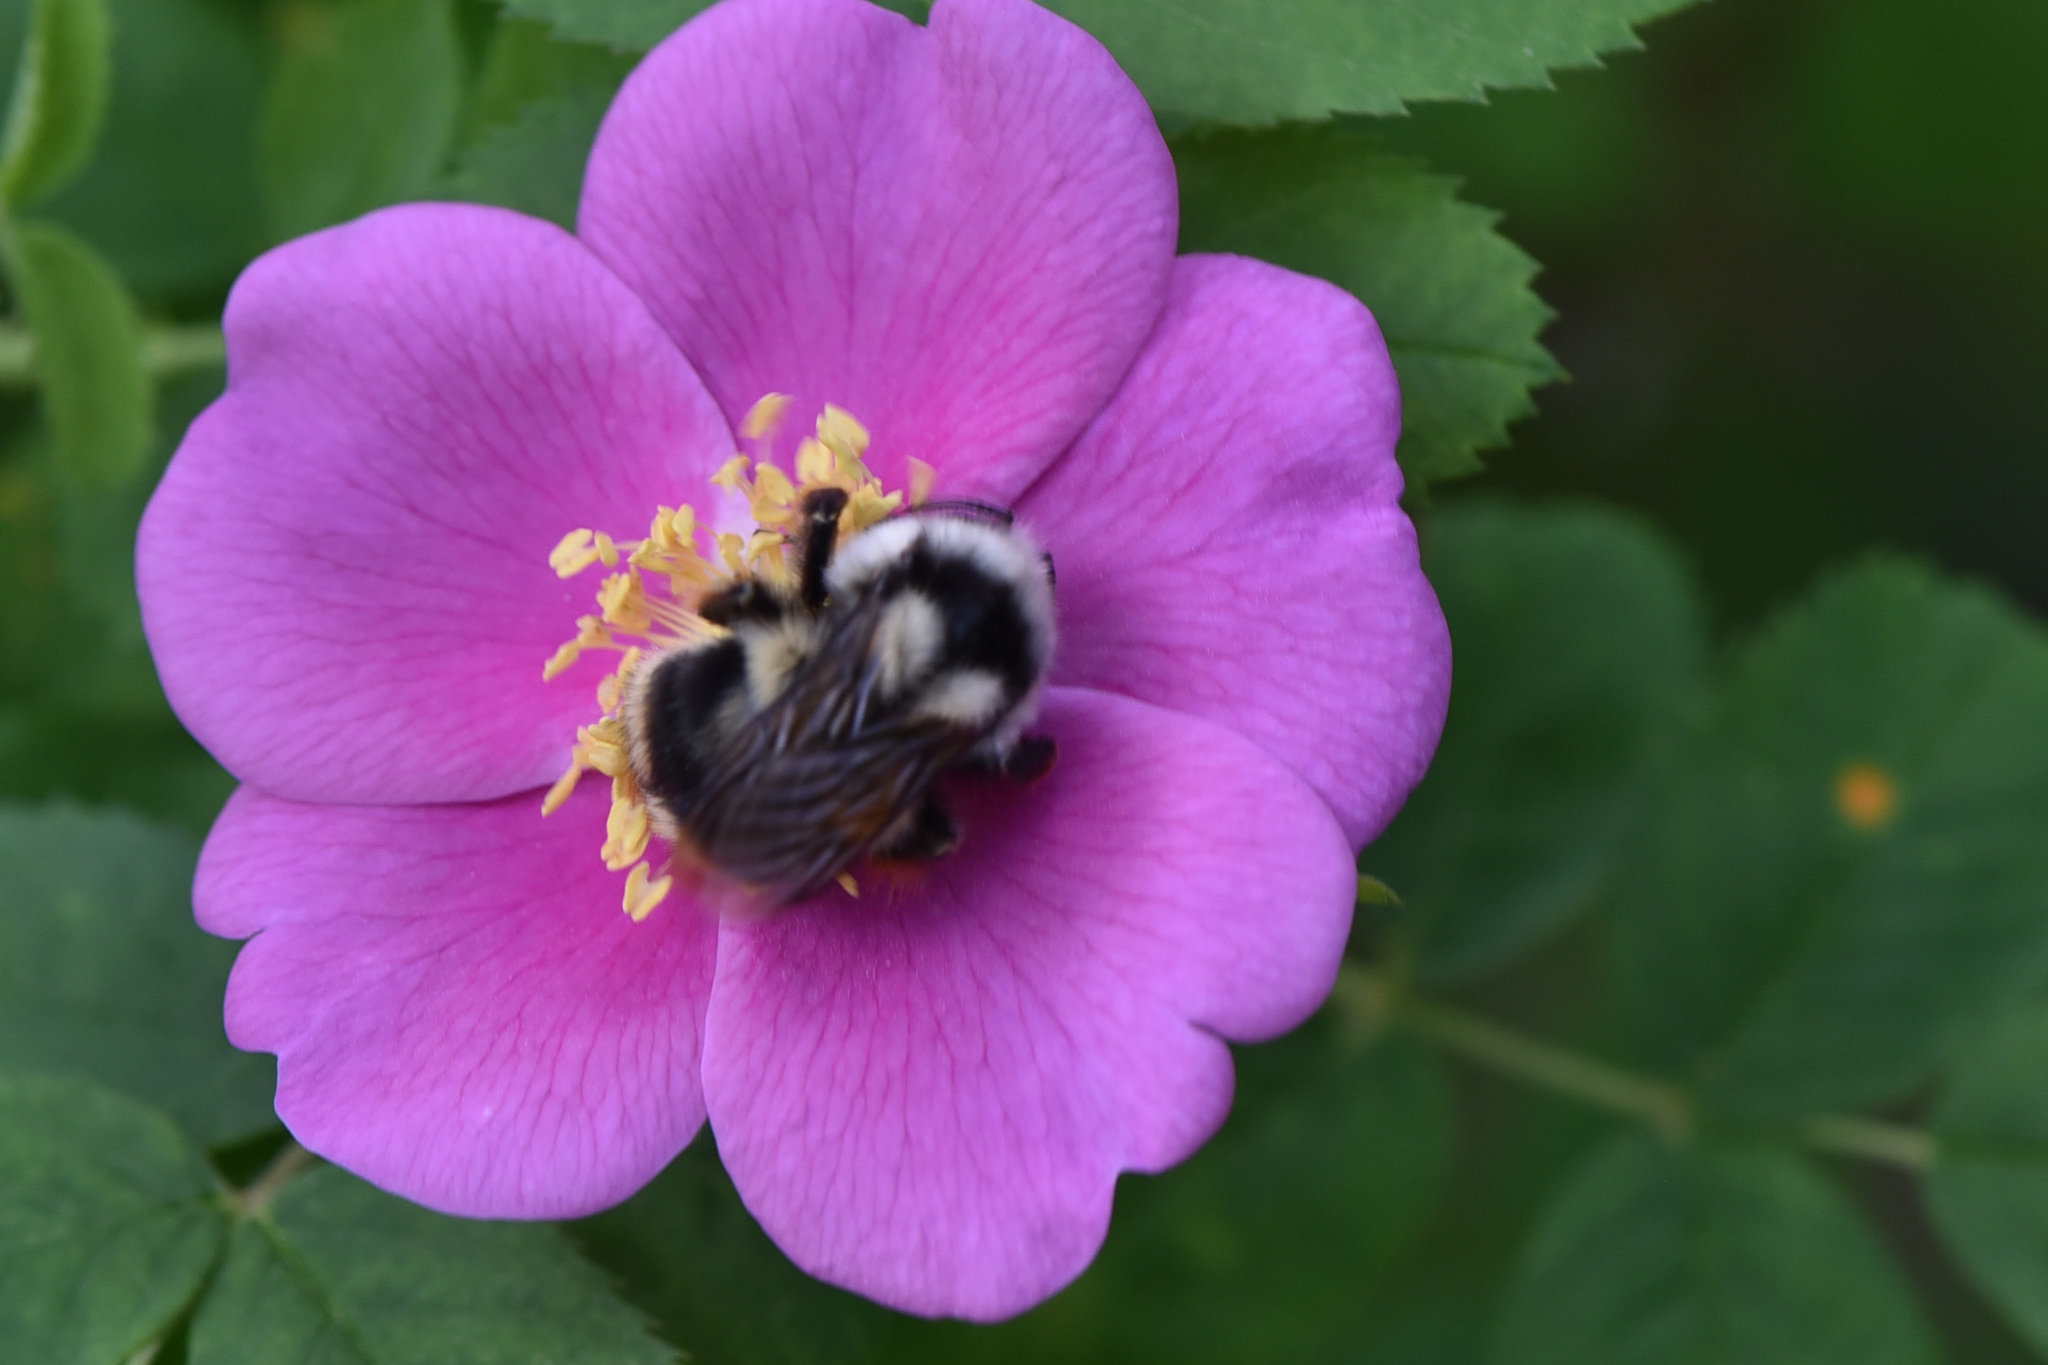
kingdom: Animalia
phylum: Arthropoda
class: Insecta
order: Hymenoptera
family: Apidae
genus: Bombus
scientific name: Bombus vancouverensis
